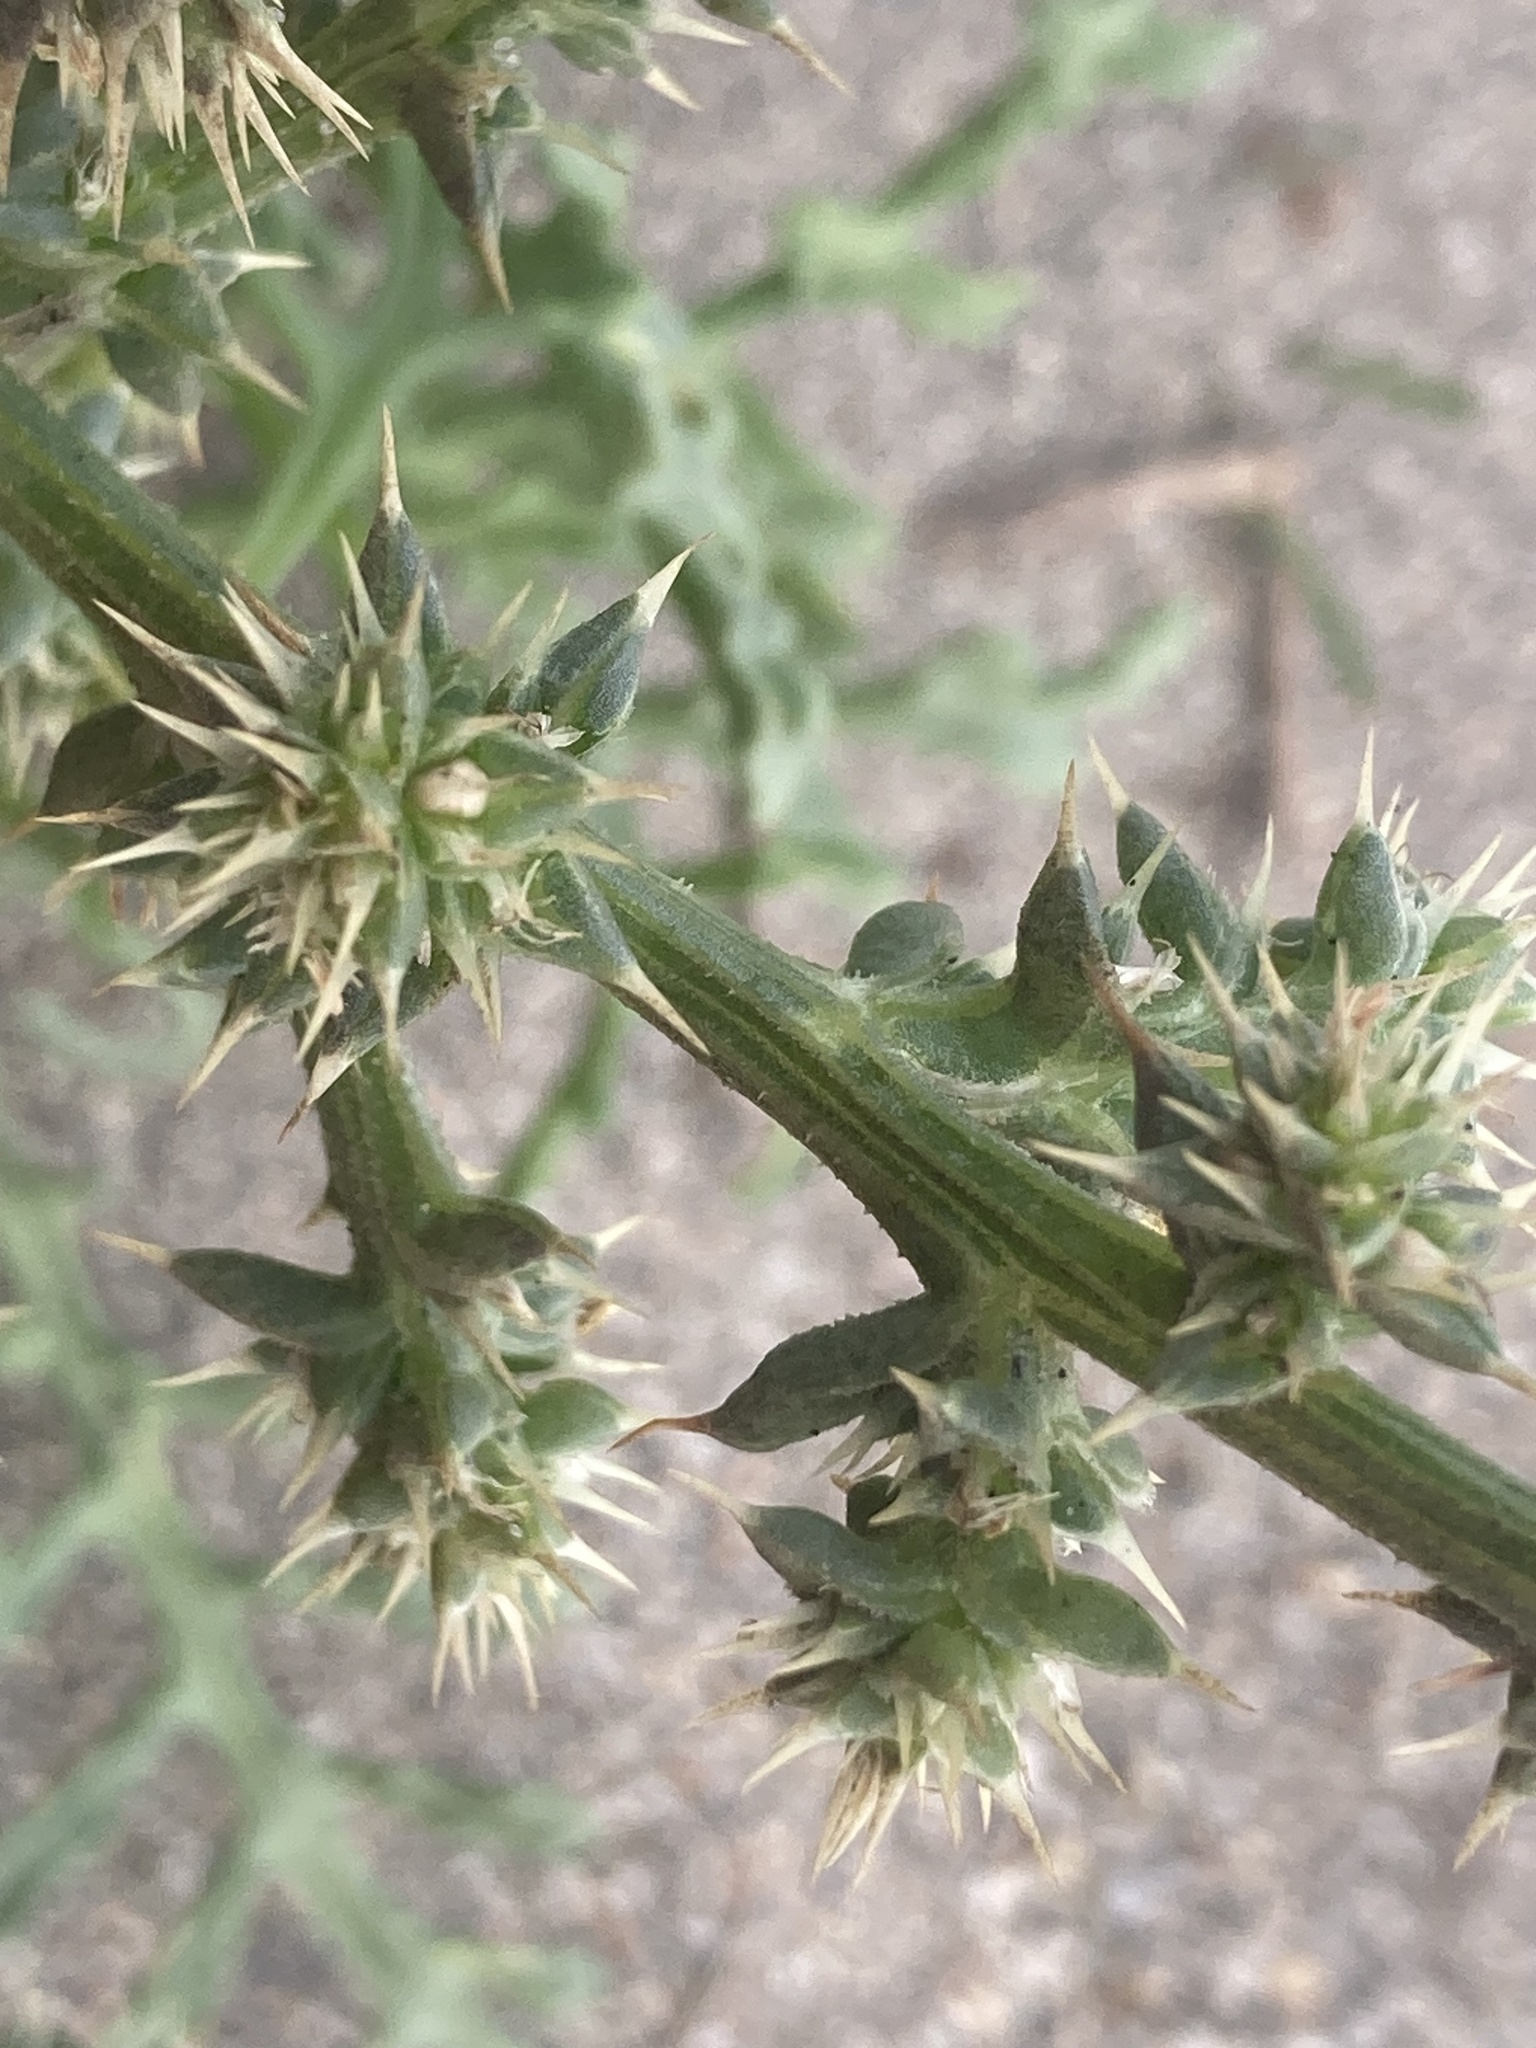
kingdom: Plantae
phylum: Tracheophyta
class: Magnoliopsida
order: Caryophyllales
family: Amaranthaceae
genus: Salsola
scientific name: Salsola kali
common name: Saltwort
